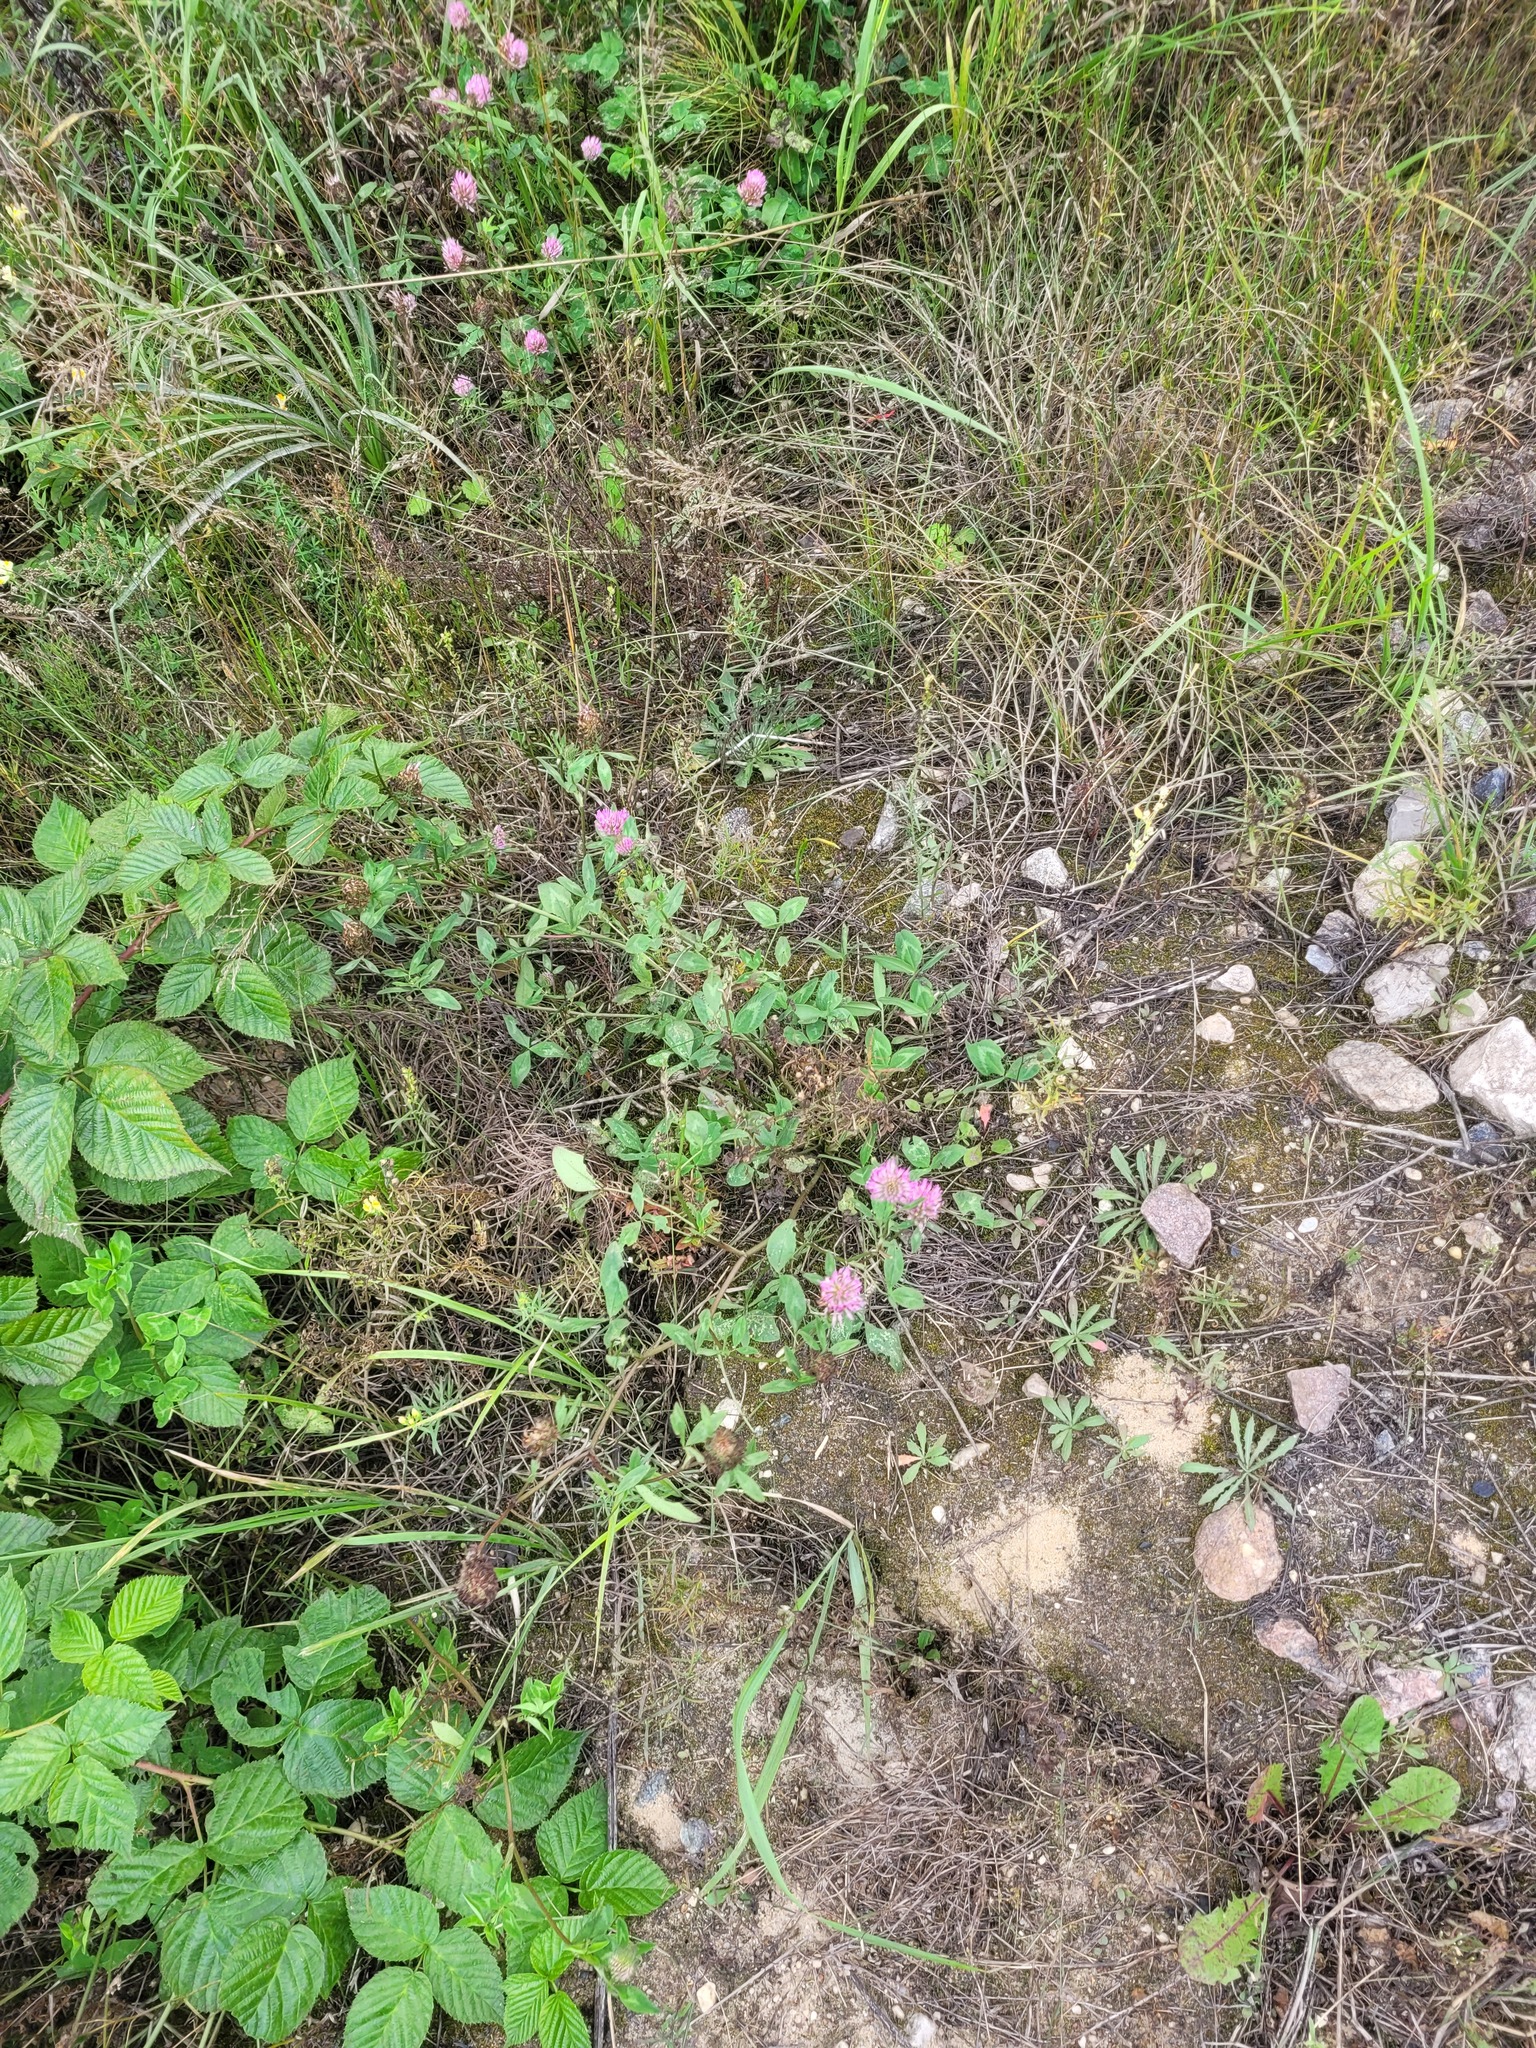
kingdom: Plantae
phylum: Tracheophyta
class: Magnoliopsida
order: Fabales
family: Fabaceae
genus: Trifolium
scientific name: Trifolium pratense
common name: Red clover
